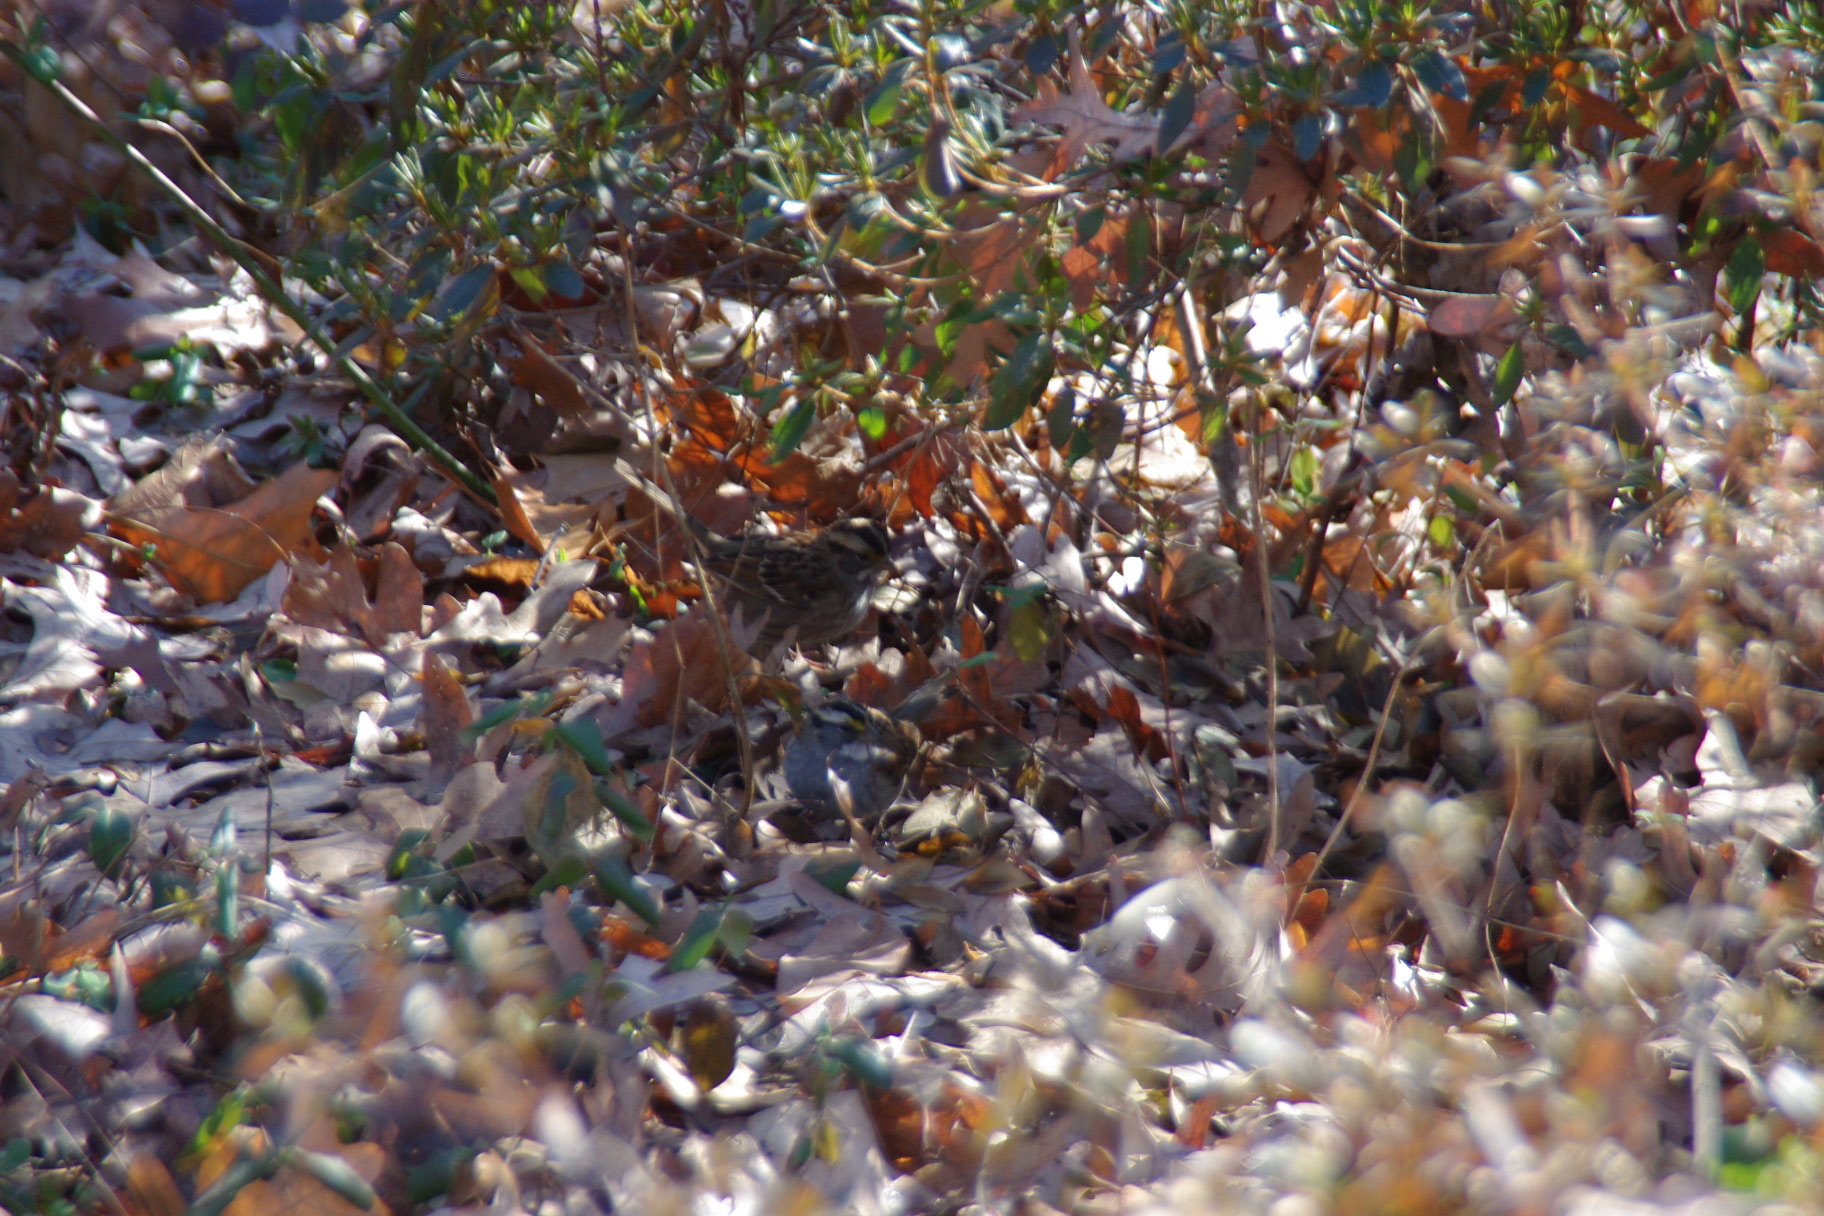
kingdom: Animalia
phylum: Chordata
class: Aves
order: Passeriformes
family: Passerellidae
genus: Zonotrichia
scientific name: Zonotrichia albicollis
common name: White-throated sparrow
